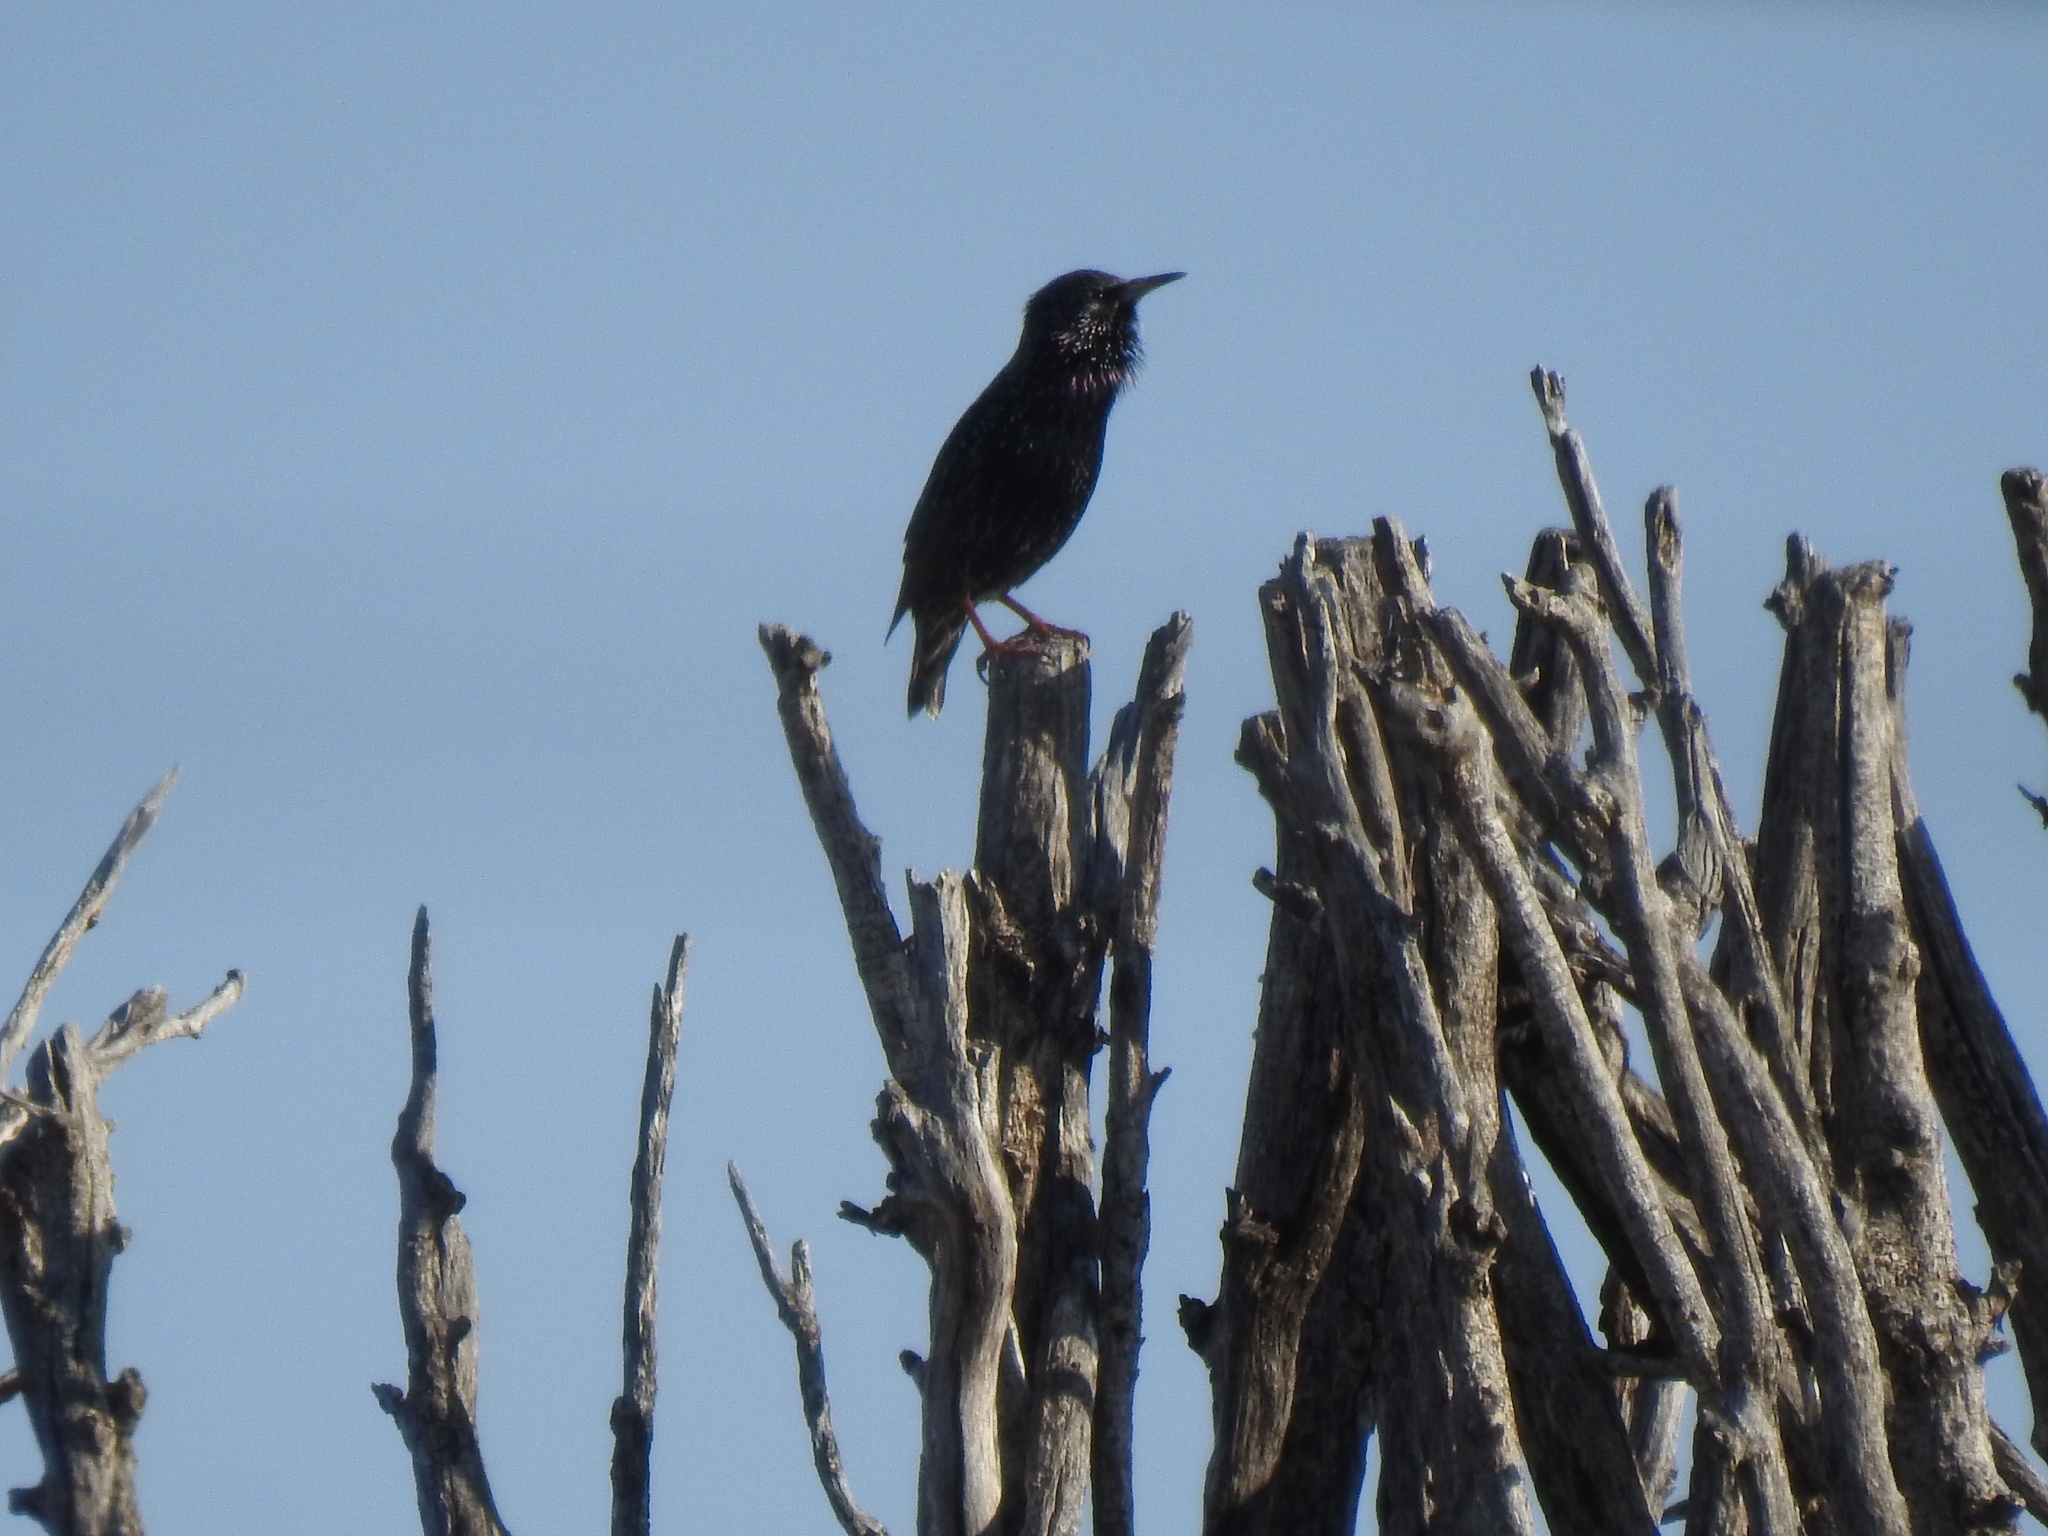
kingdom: Animalia
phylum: Chordata
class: Aves
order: Passeriformes
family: Sturnidae
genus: Sturnus
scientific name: Sturnus vulgaris
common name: Common starling
